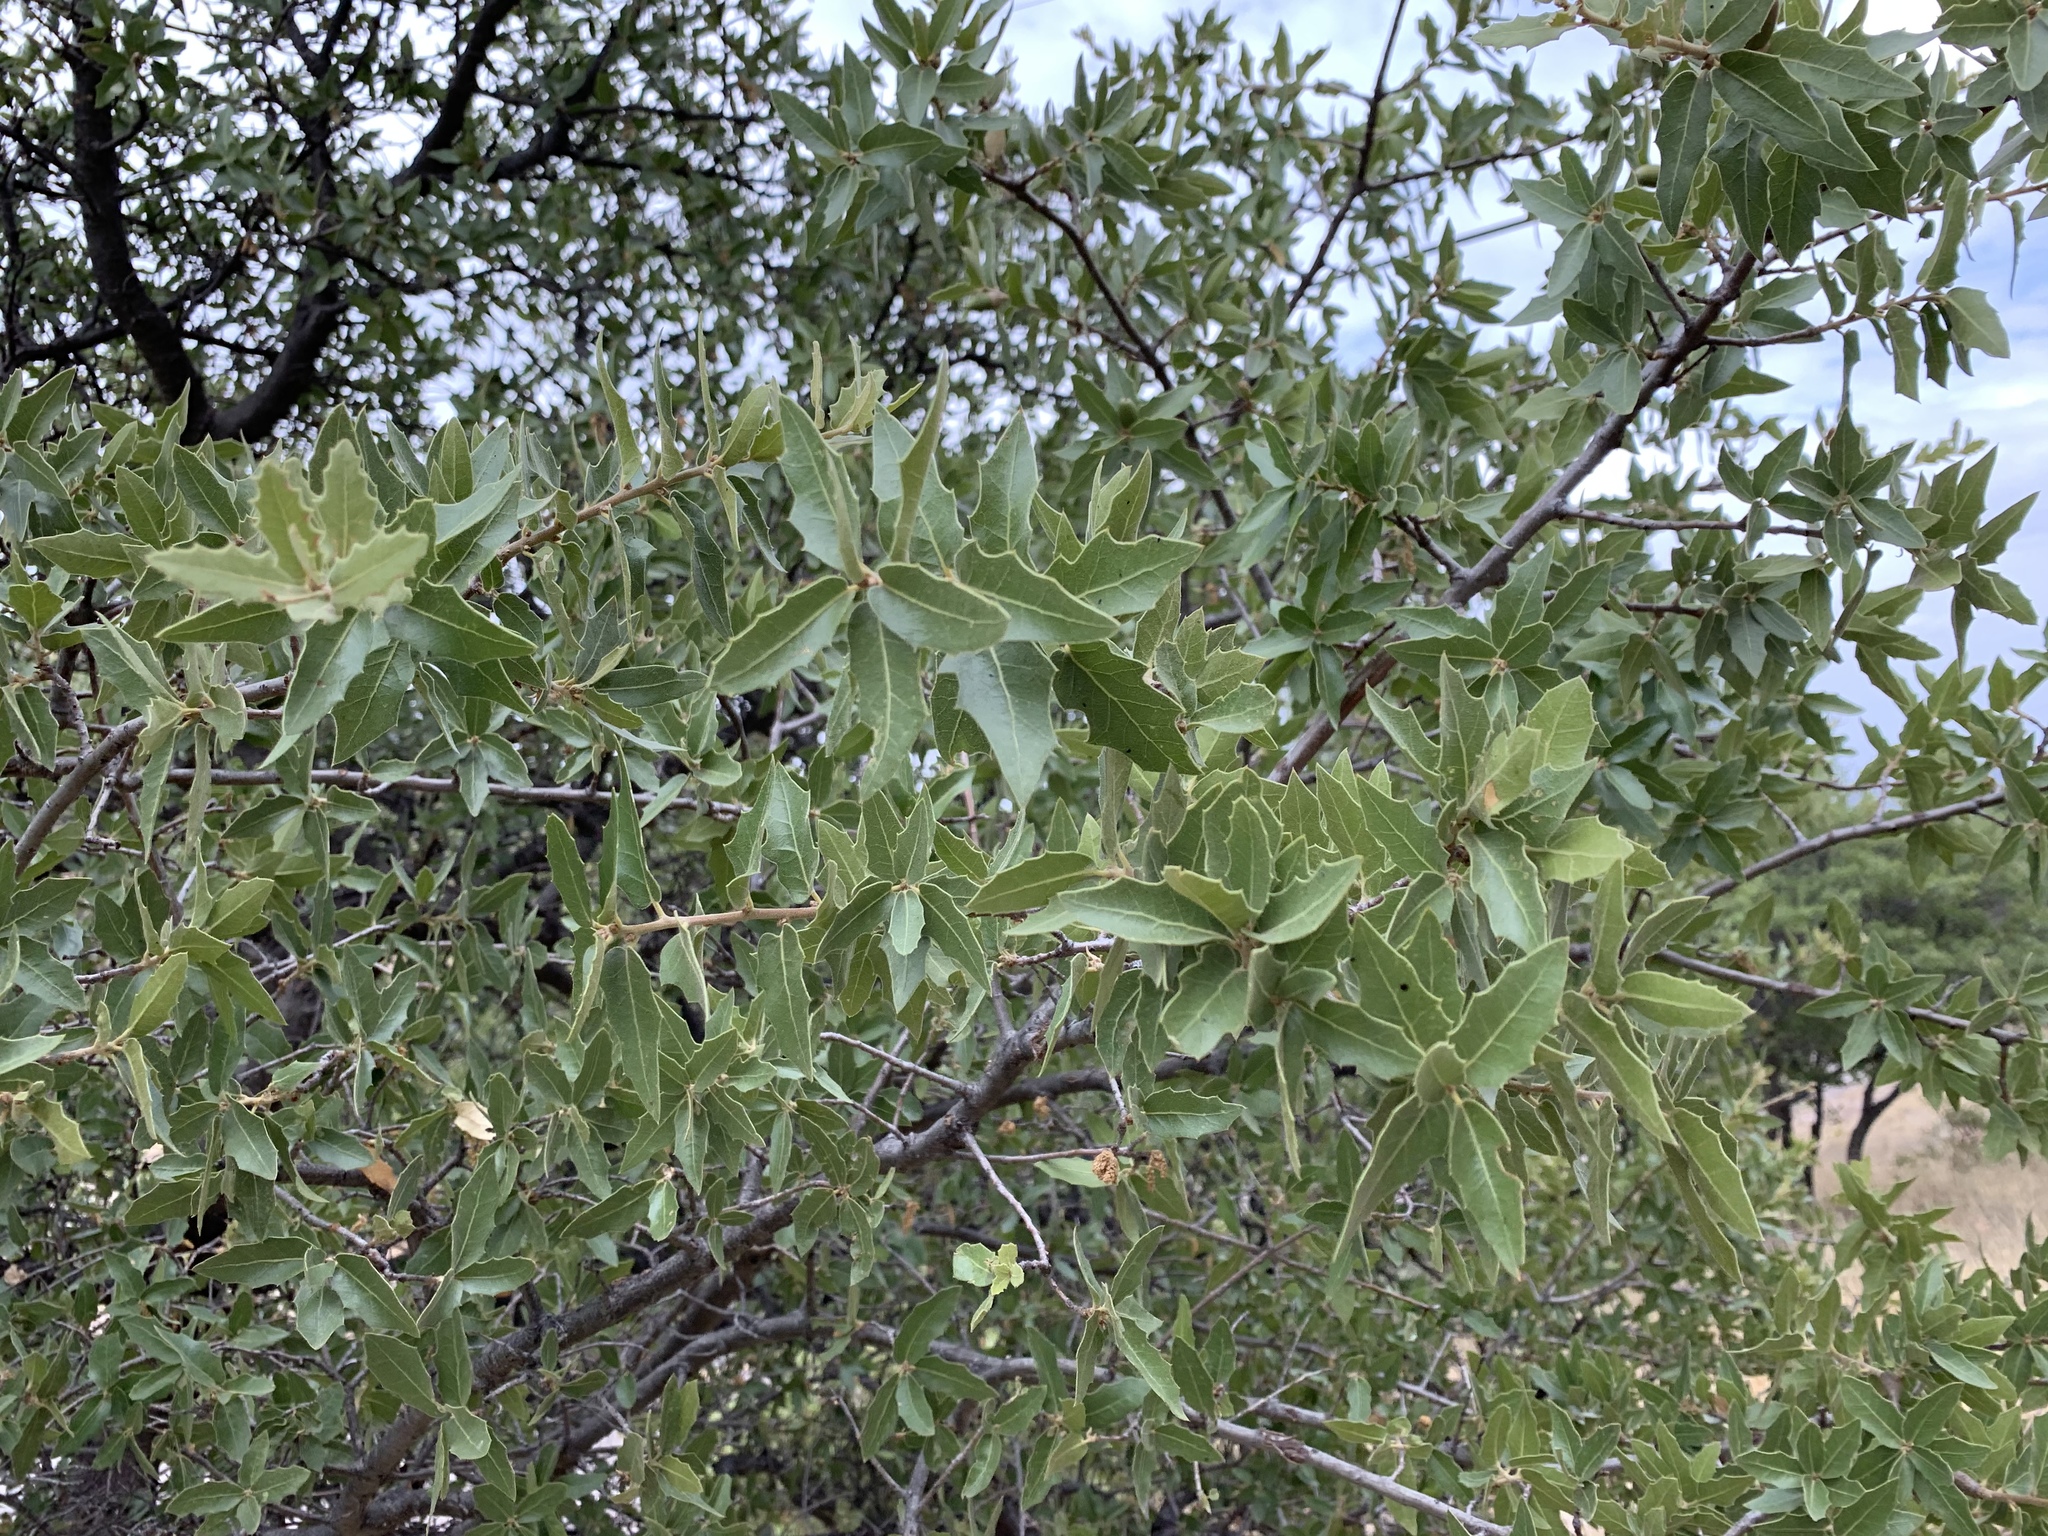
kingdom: Plantae
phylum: Tracheophyta
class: Magnoliopsida
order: Fagales
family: Fagaceae
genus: Quercus
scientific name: Quercus emoryi
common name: Emory oak
